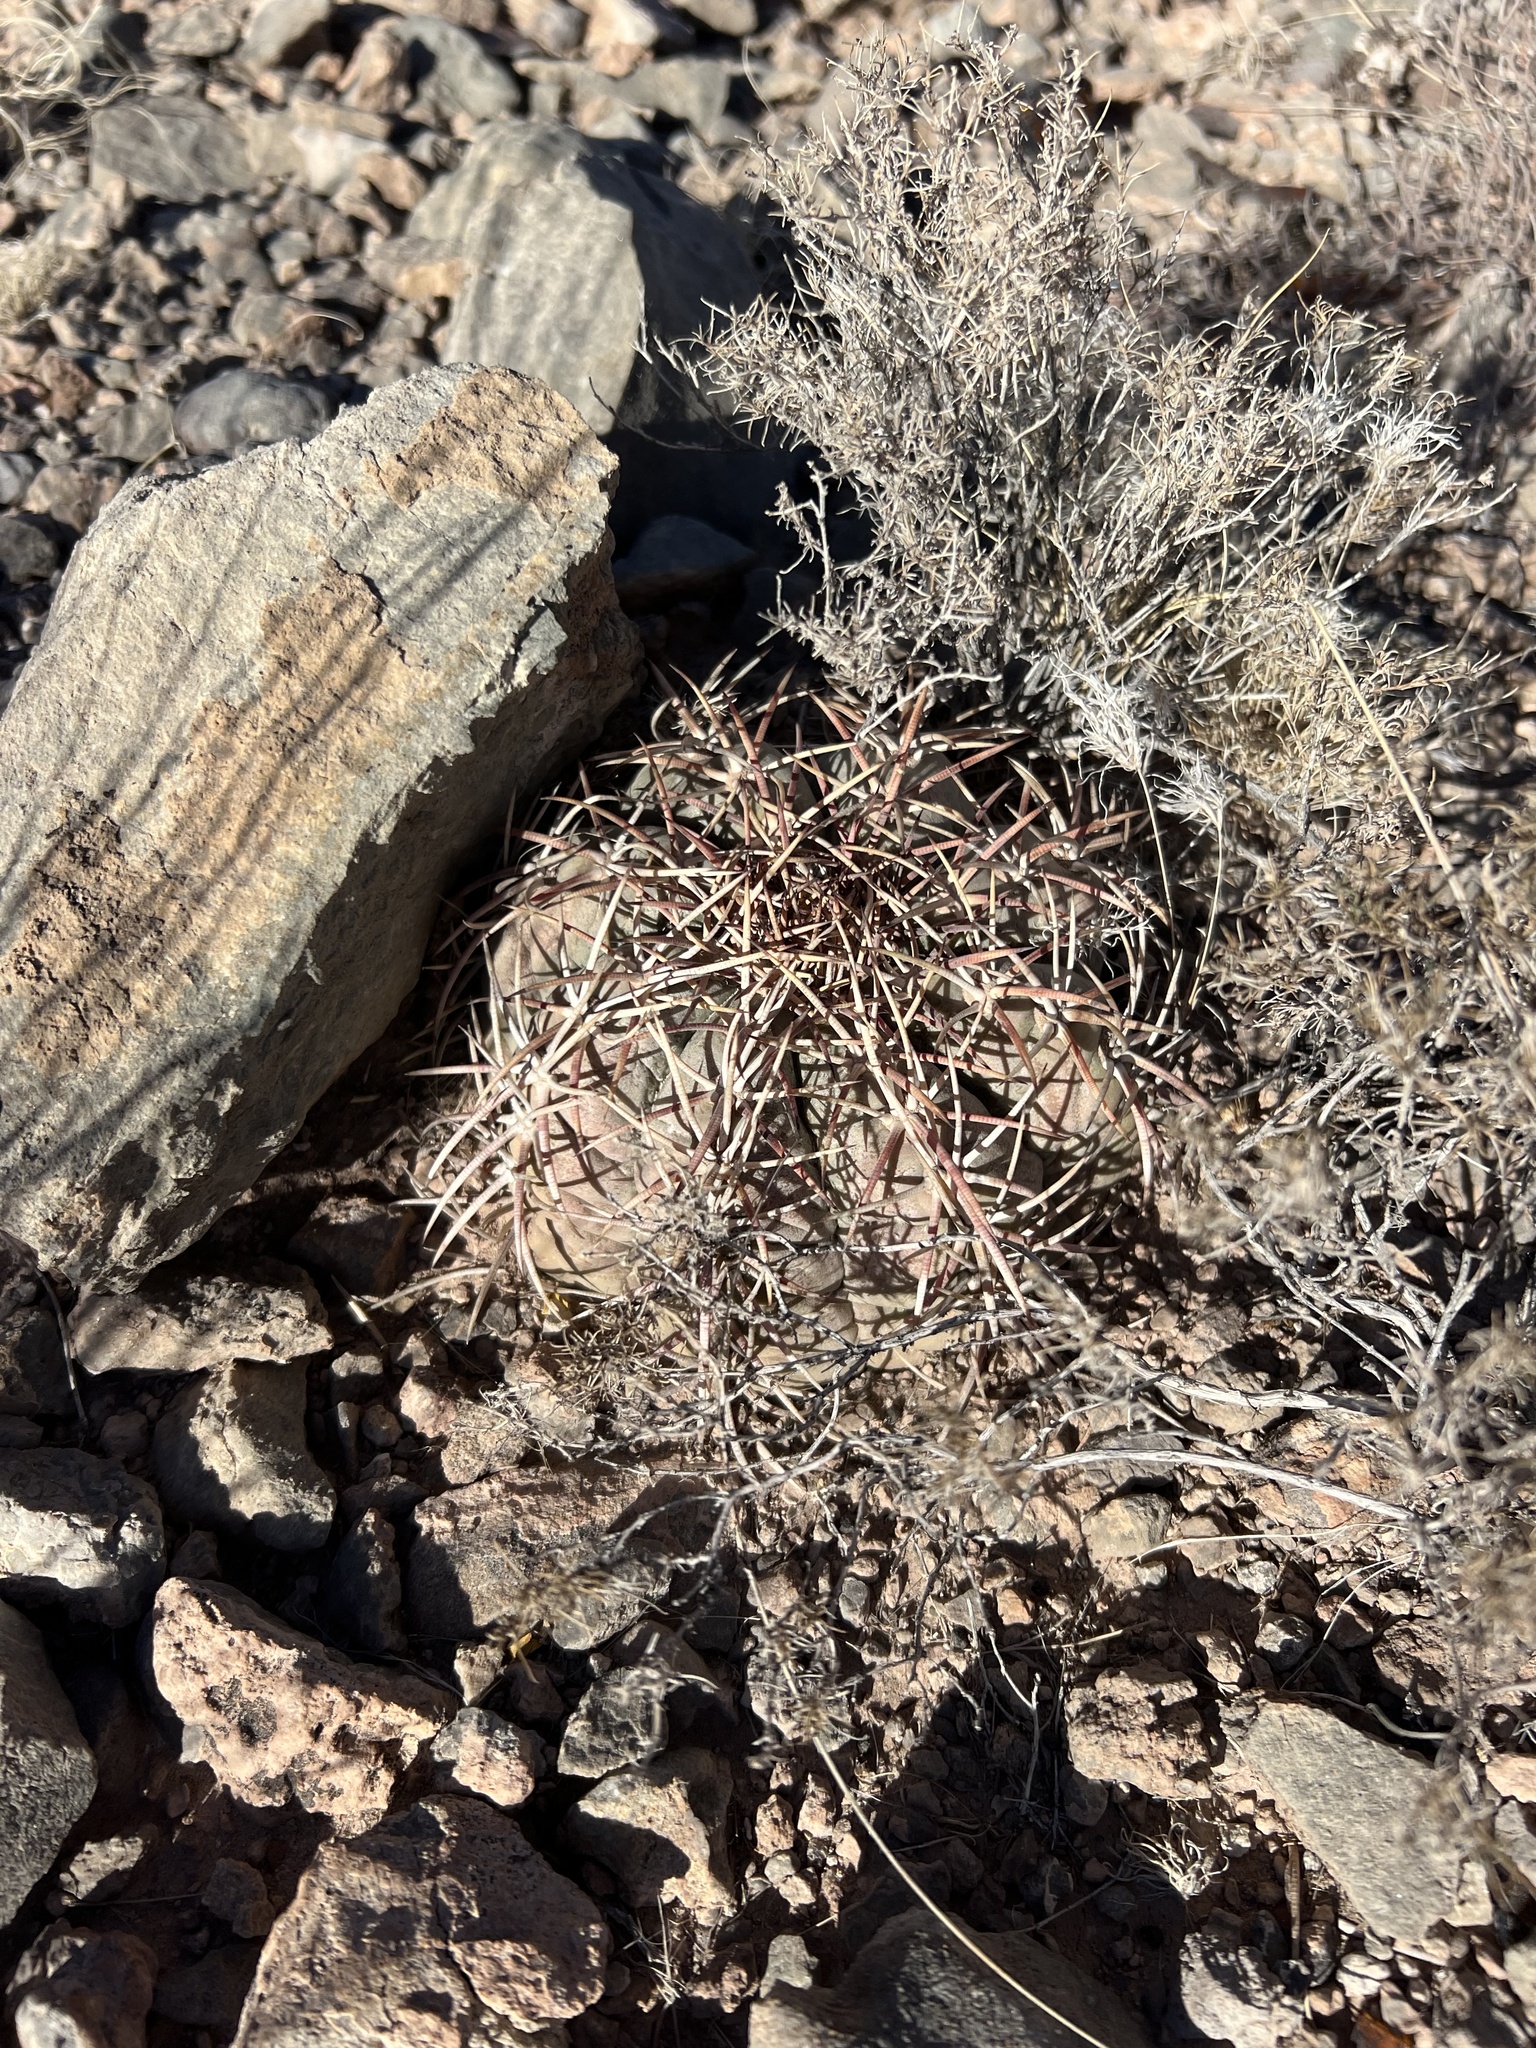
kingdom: Plantae
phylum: Tracheophyta
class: Magnoliopsida
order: Caryophyllales
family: Cactaceae
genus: Echinocactus
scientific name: Echinocactus horizonthalonius
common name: Devilshead
